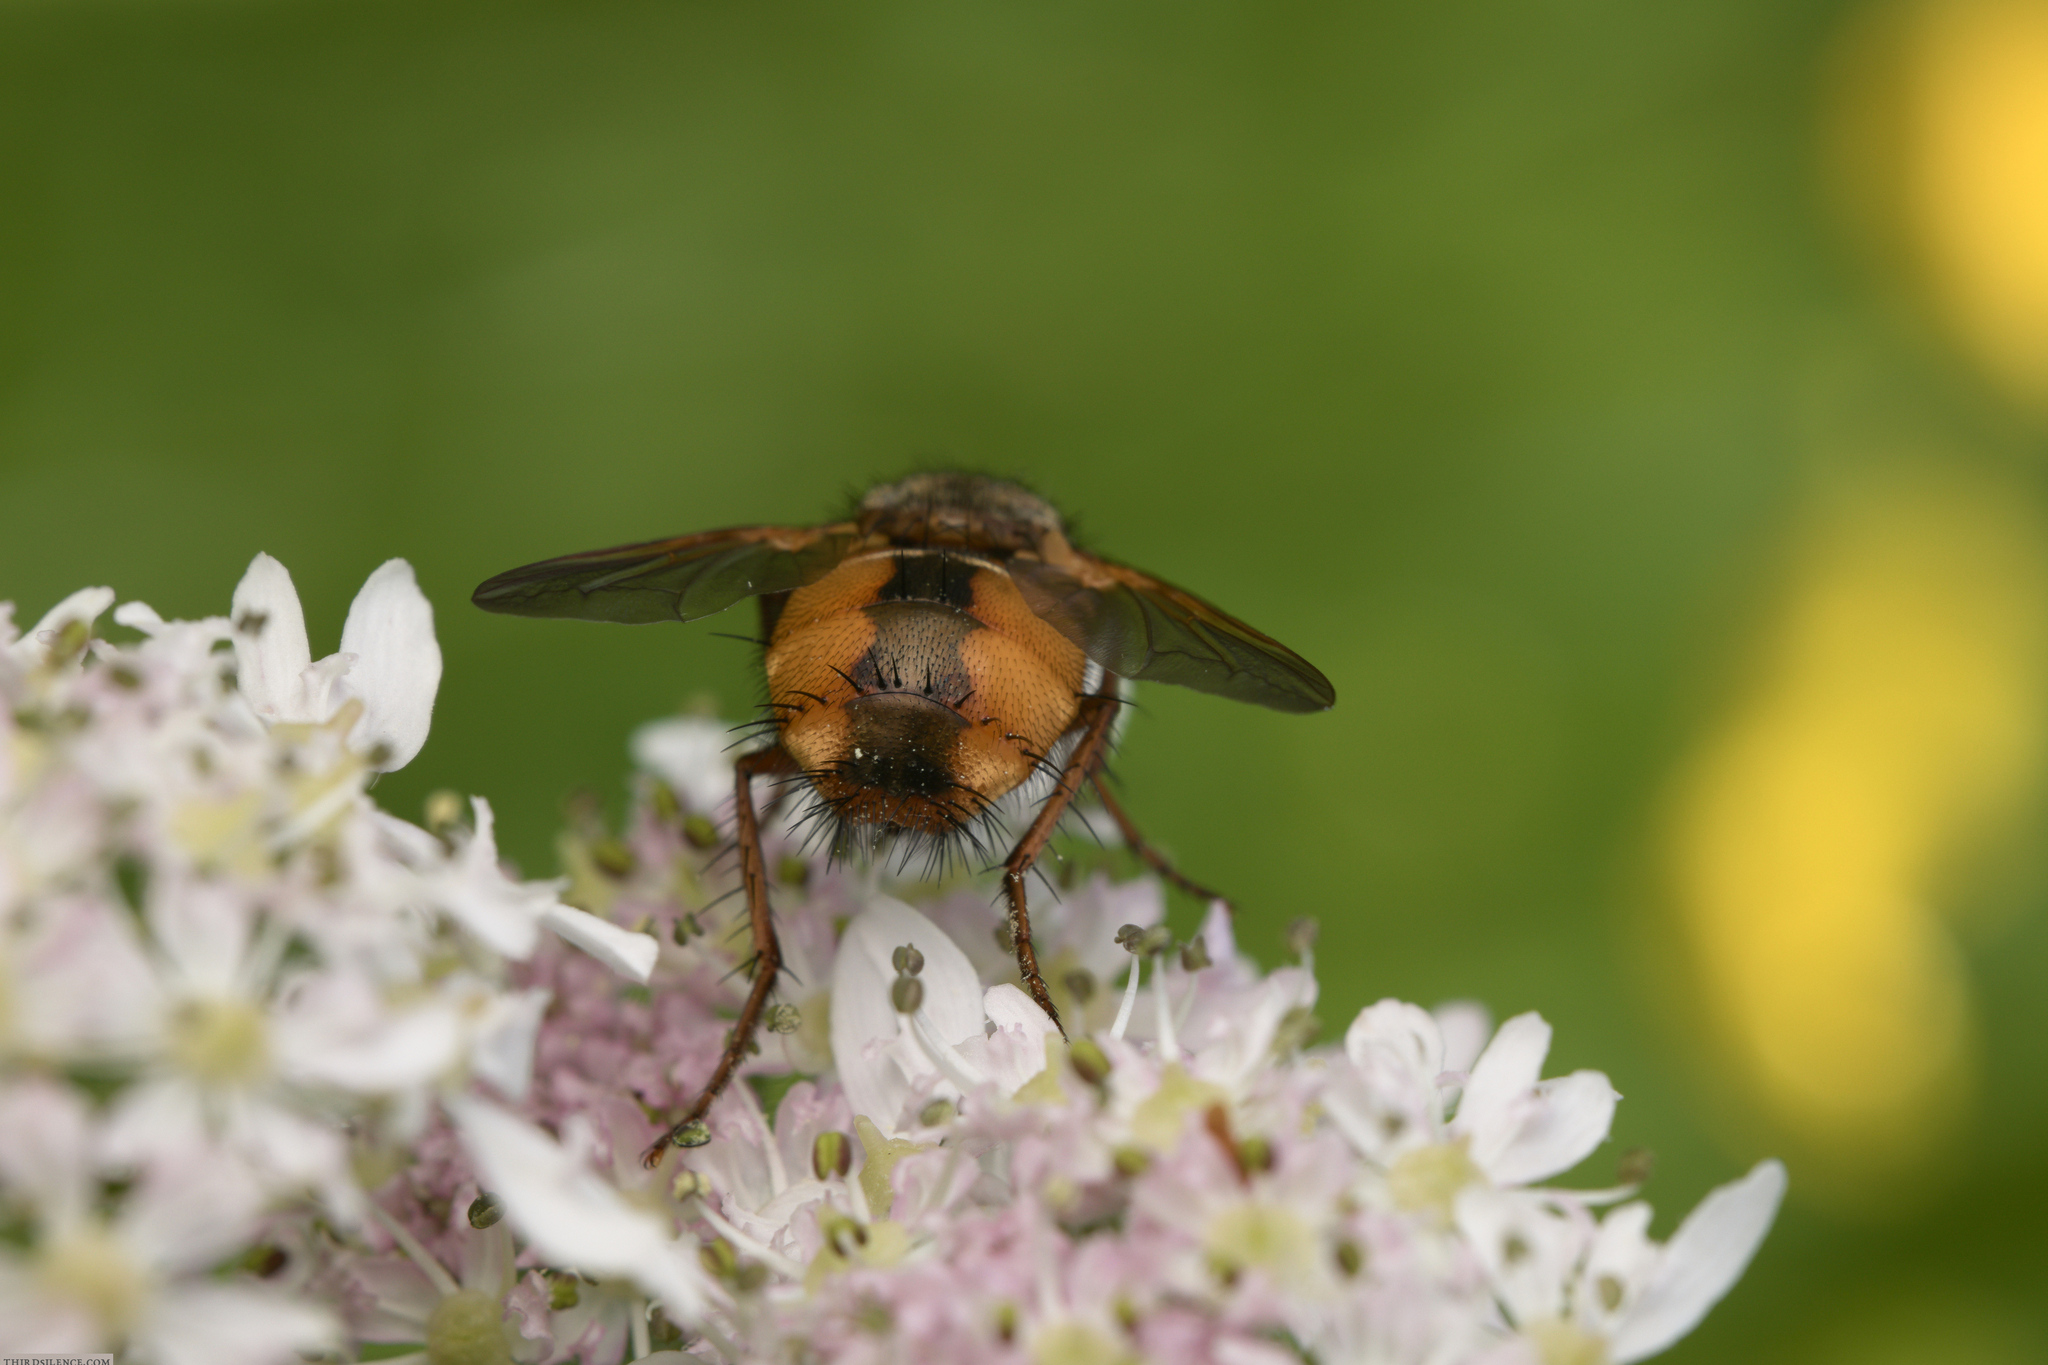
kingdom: Animalia
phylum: Arthropoda
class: Insecta
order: Diptera
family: Tachinidae
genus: Tachina
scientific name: Tachina fera
